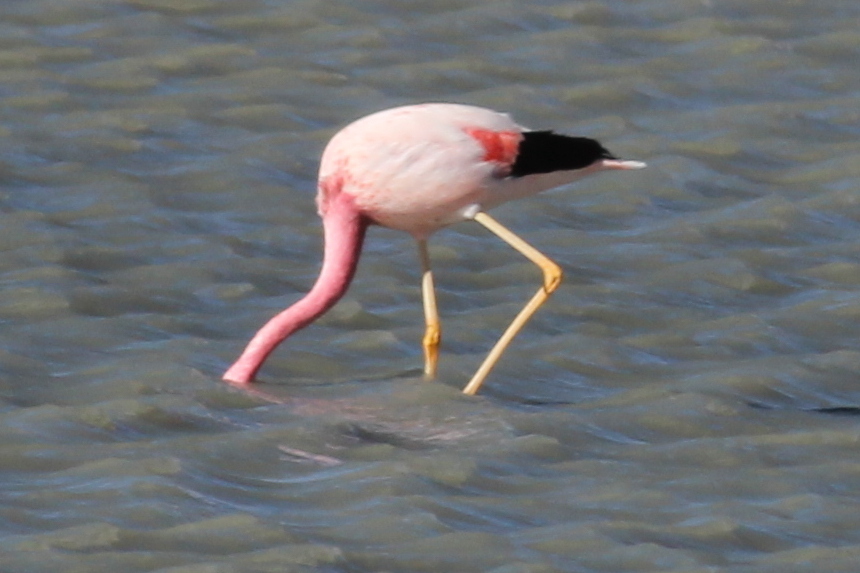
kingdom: Animalia
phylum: Chordata
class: Aves
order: Phoenicopteriformes
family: Phoenicopteridae
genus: Phoenicoparrus
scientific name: Phoenicoparrus andinus
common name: Andean flamingo
